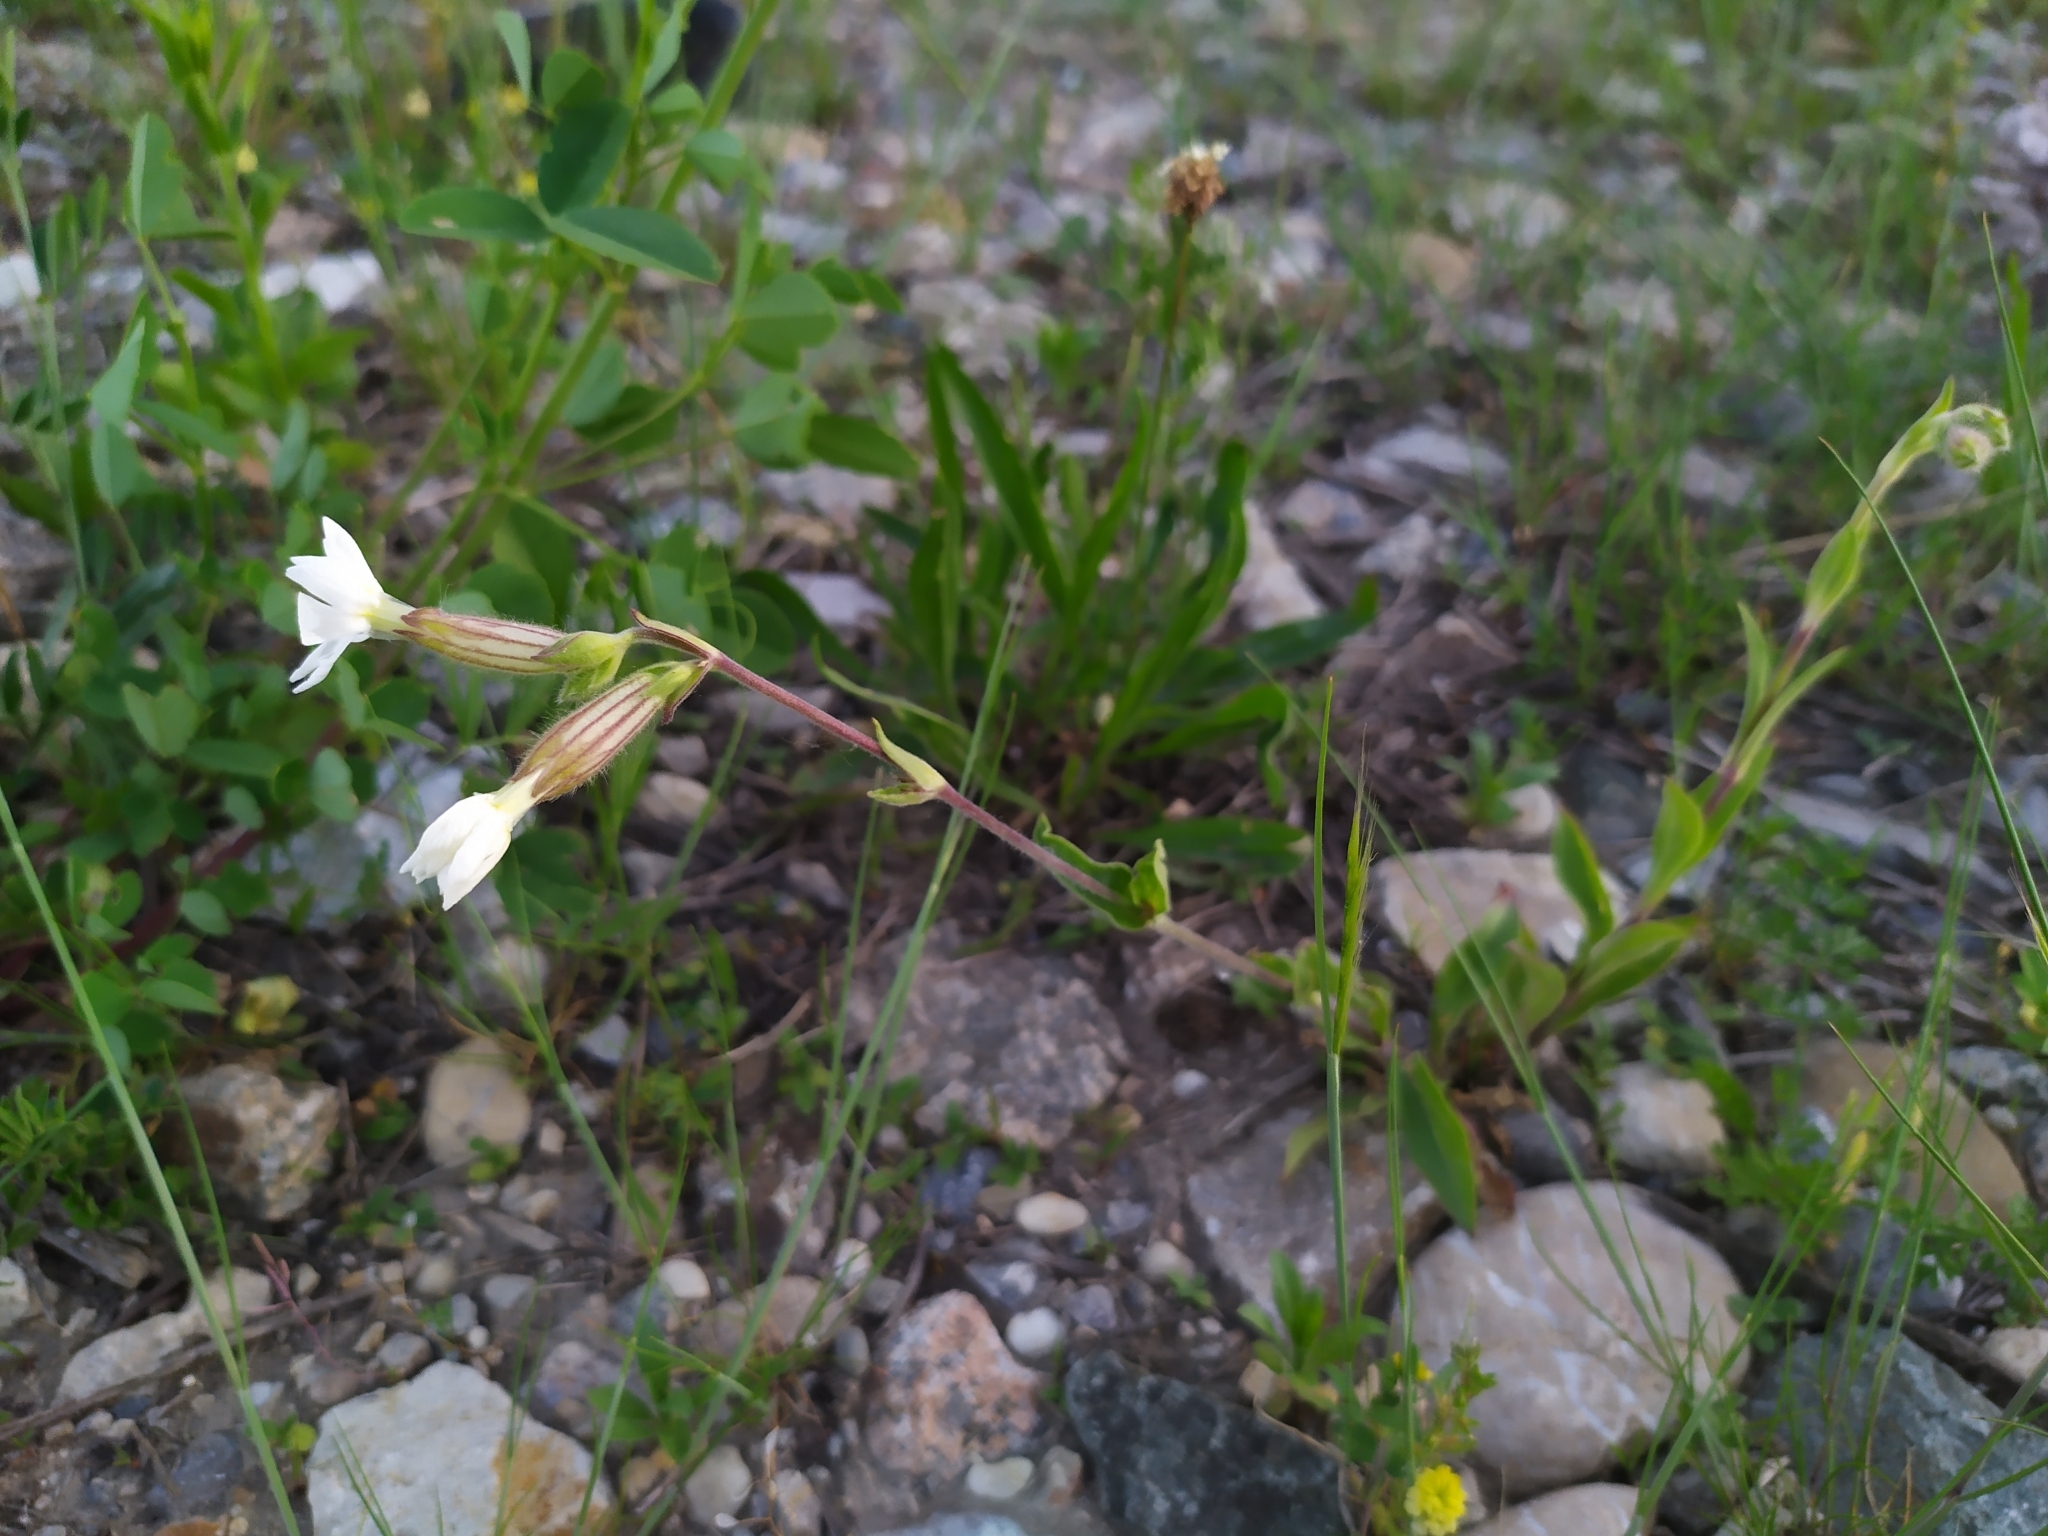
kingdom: Plantae
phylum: Tracheophyta
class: Magnoliopsida
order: Caryophyllales
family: Caryophyllaceae
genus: Silene
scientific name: Silene latifolia
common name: White campion
